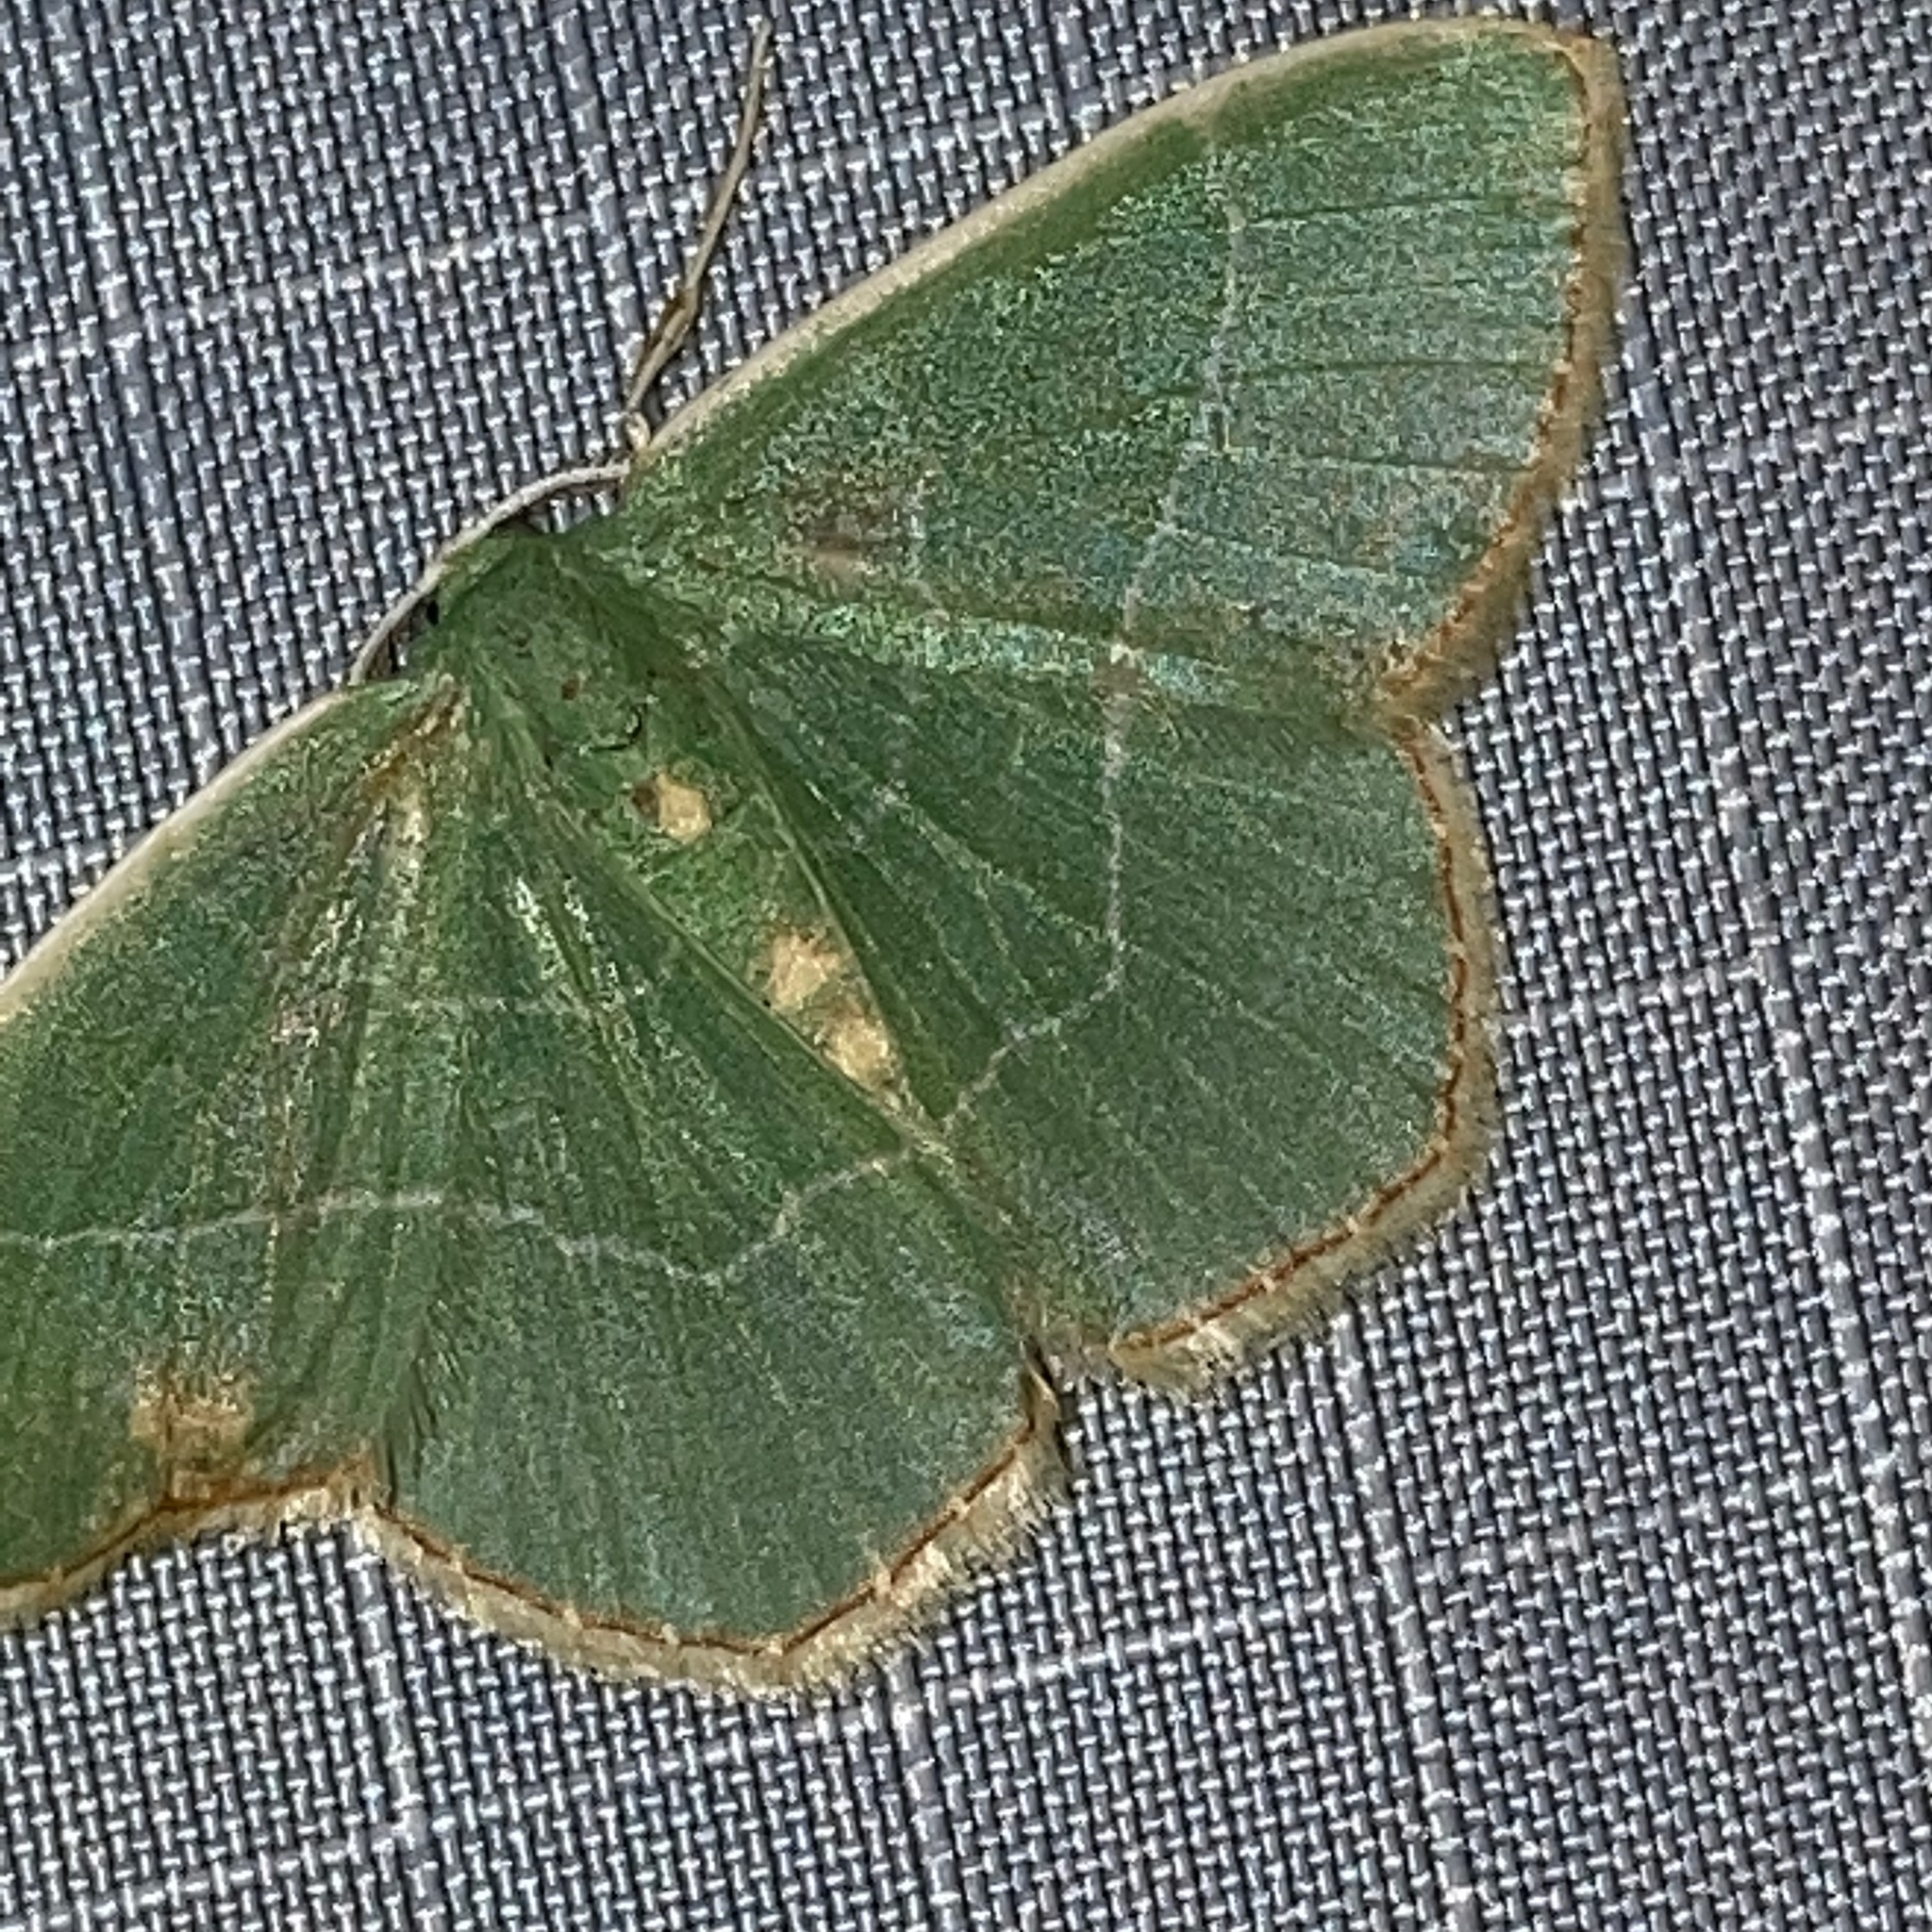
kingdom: Animalia
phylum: Arthropoda
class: Insecta
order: Lepidoptera
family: Geometridae
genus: Nemoria
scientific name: Nemoria bistriaria
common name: Red-fringed emerald
